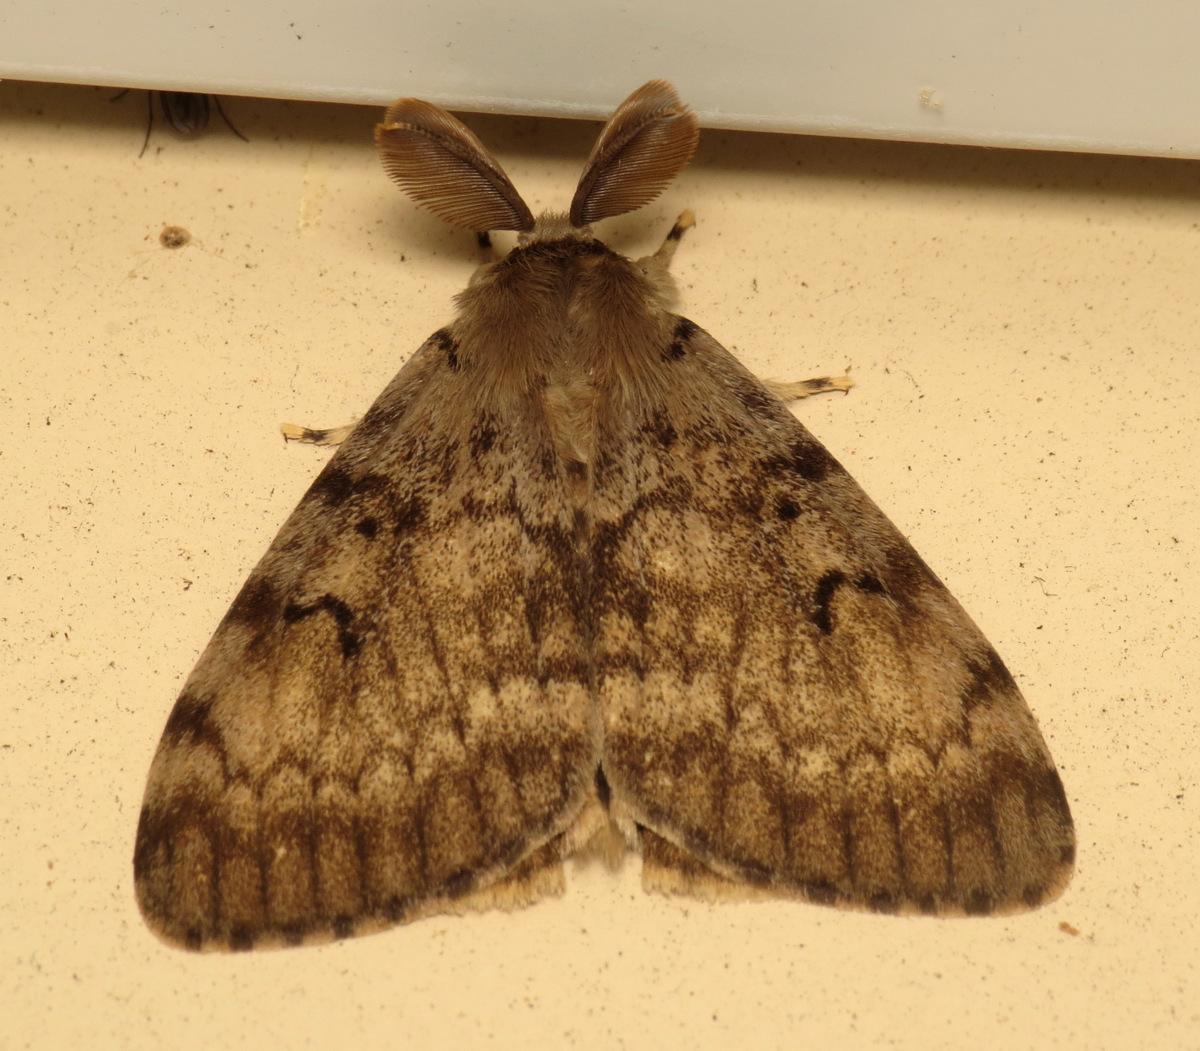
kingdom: Animalia
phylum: Arthropoda
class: Insecta
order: Lepidoptera
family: Erebidae
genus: Lymantria
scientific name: Lymantria dispar
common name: Gypsy moth
